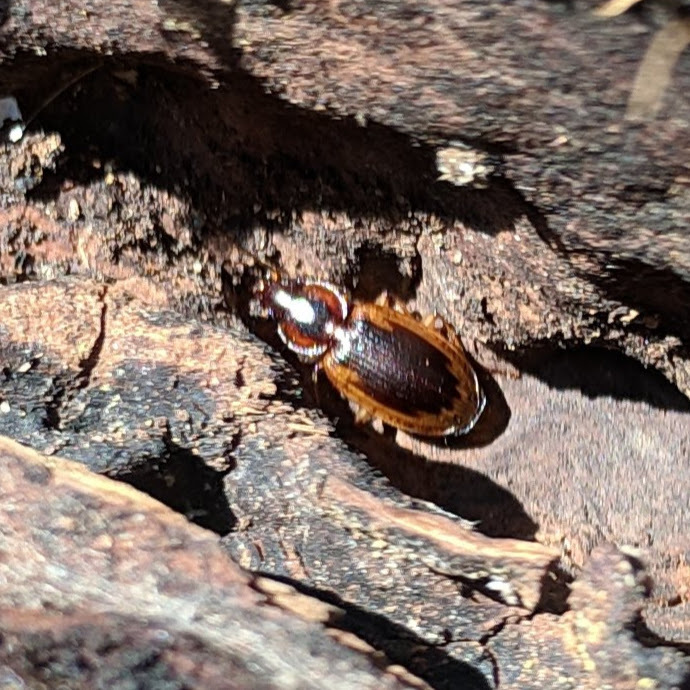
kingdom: Animalia
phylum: Arthropoda
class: Insecta
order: Coleoptera
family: Carabidae
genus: Tanystoma
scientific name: Tanystoma maculicolle
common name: Tule beetle
